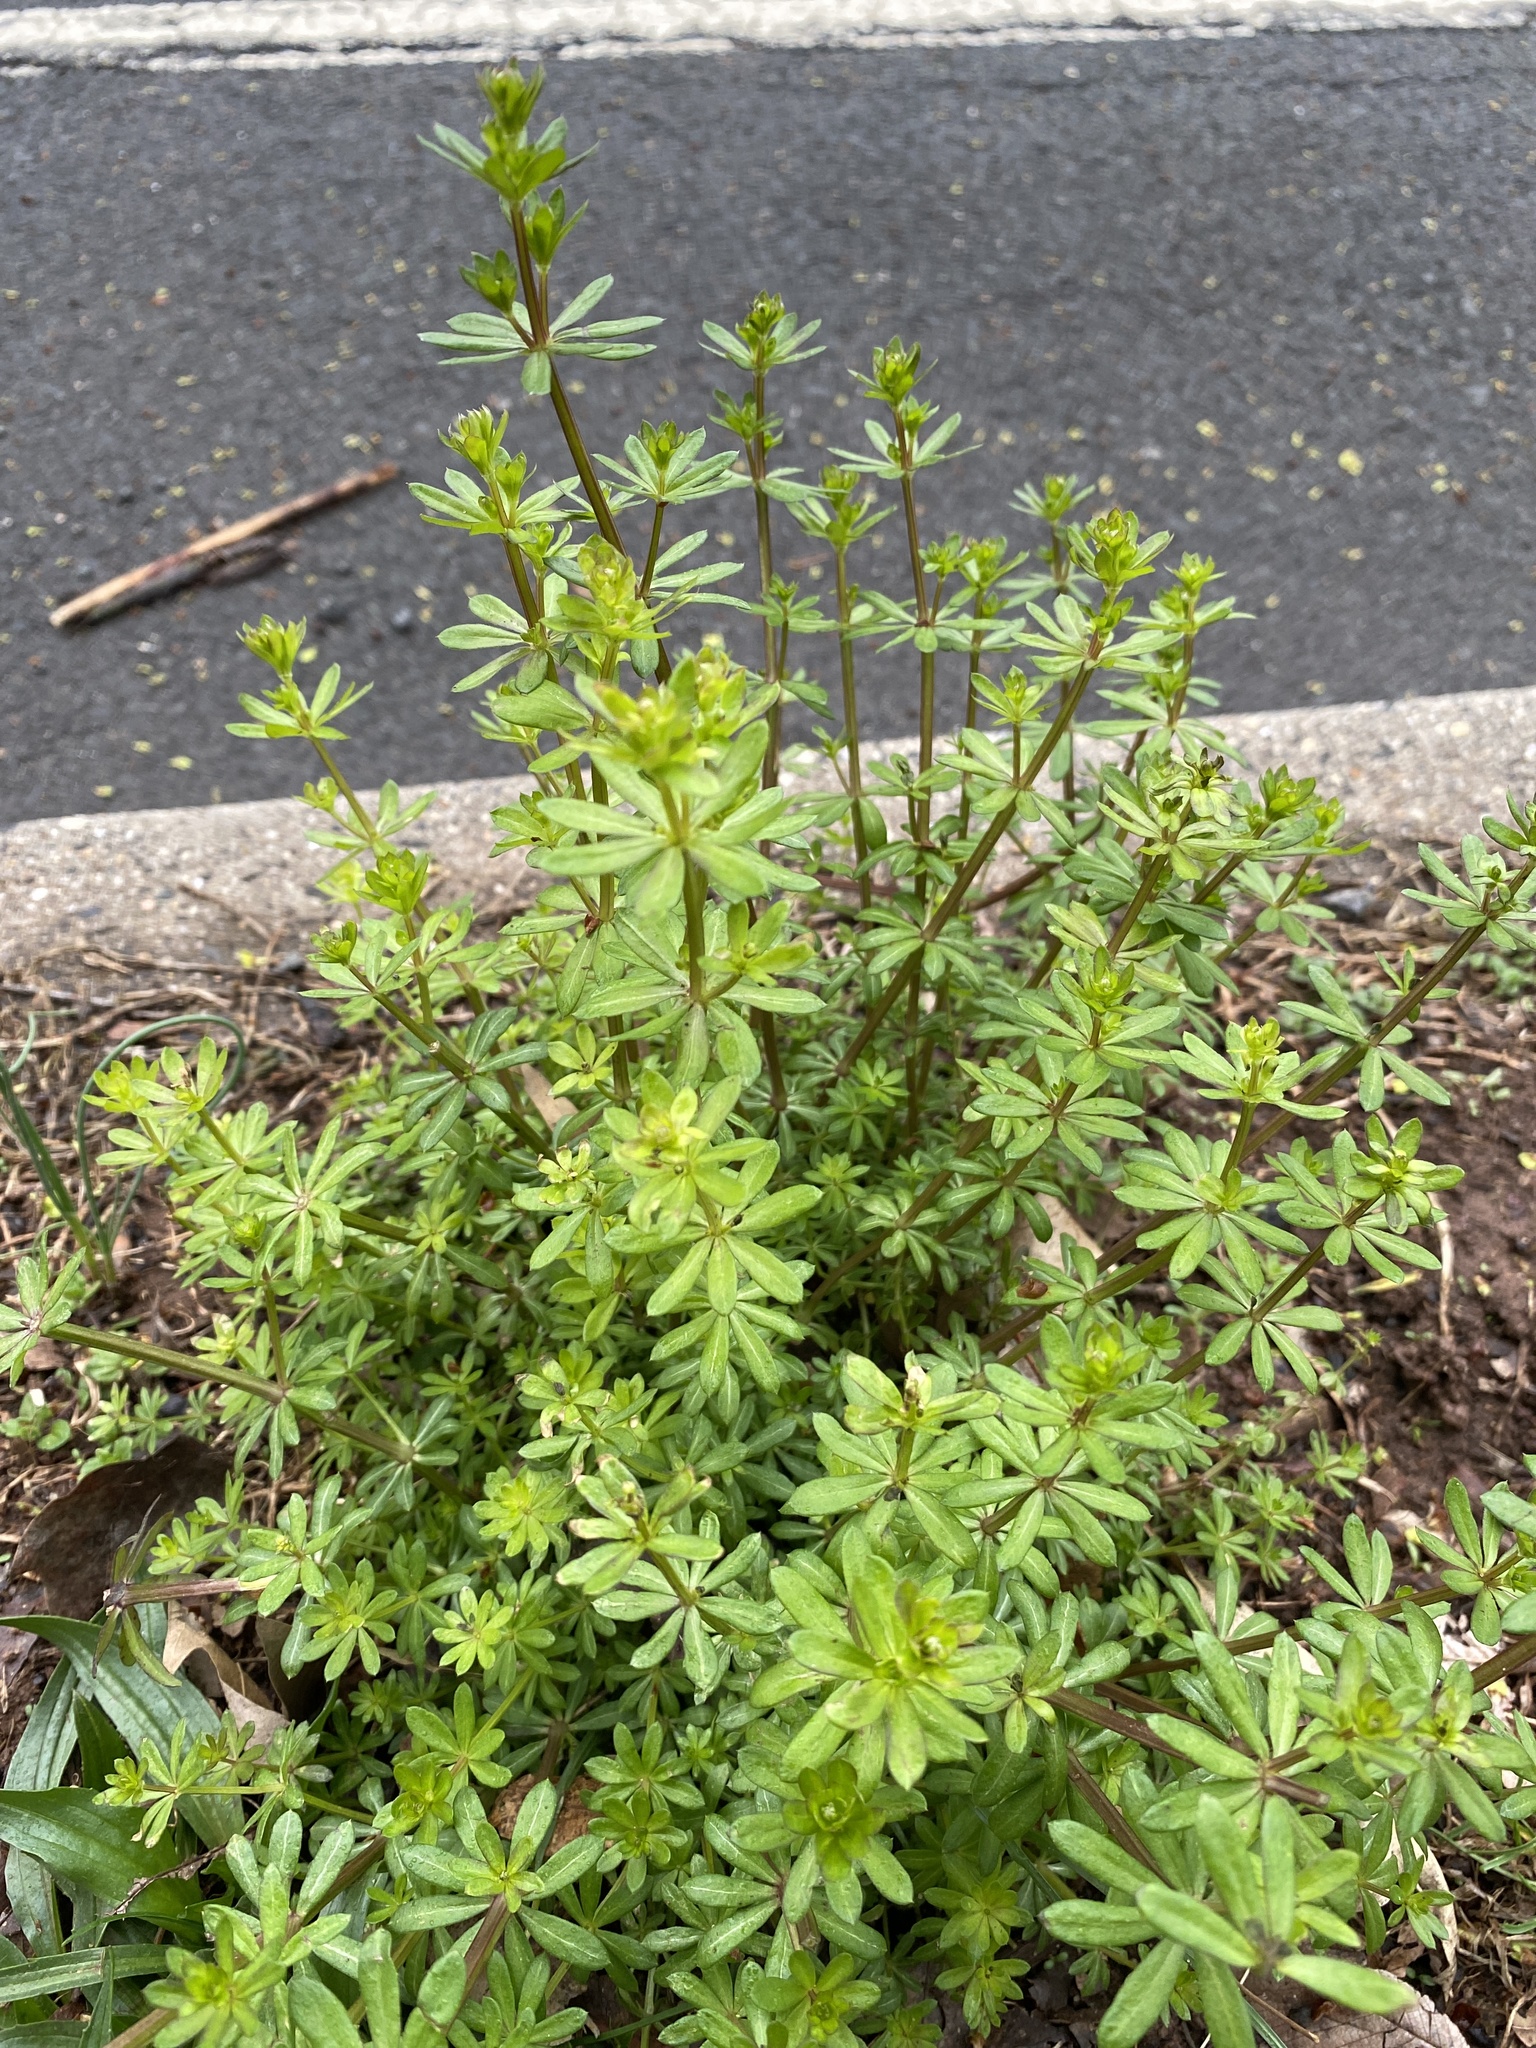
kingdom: Plantae
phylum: Tracheophyta
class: Magnoliopsida
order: Gentianales
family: Rubiaceae
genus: Galium
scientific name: Galium mollugo
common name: Hedge bedstraw
